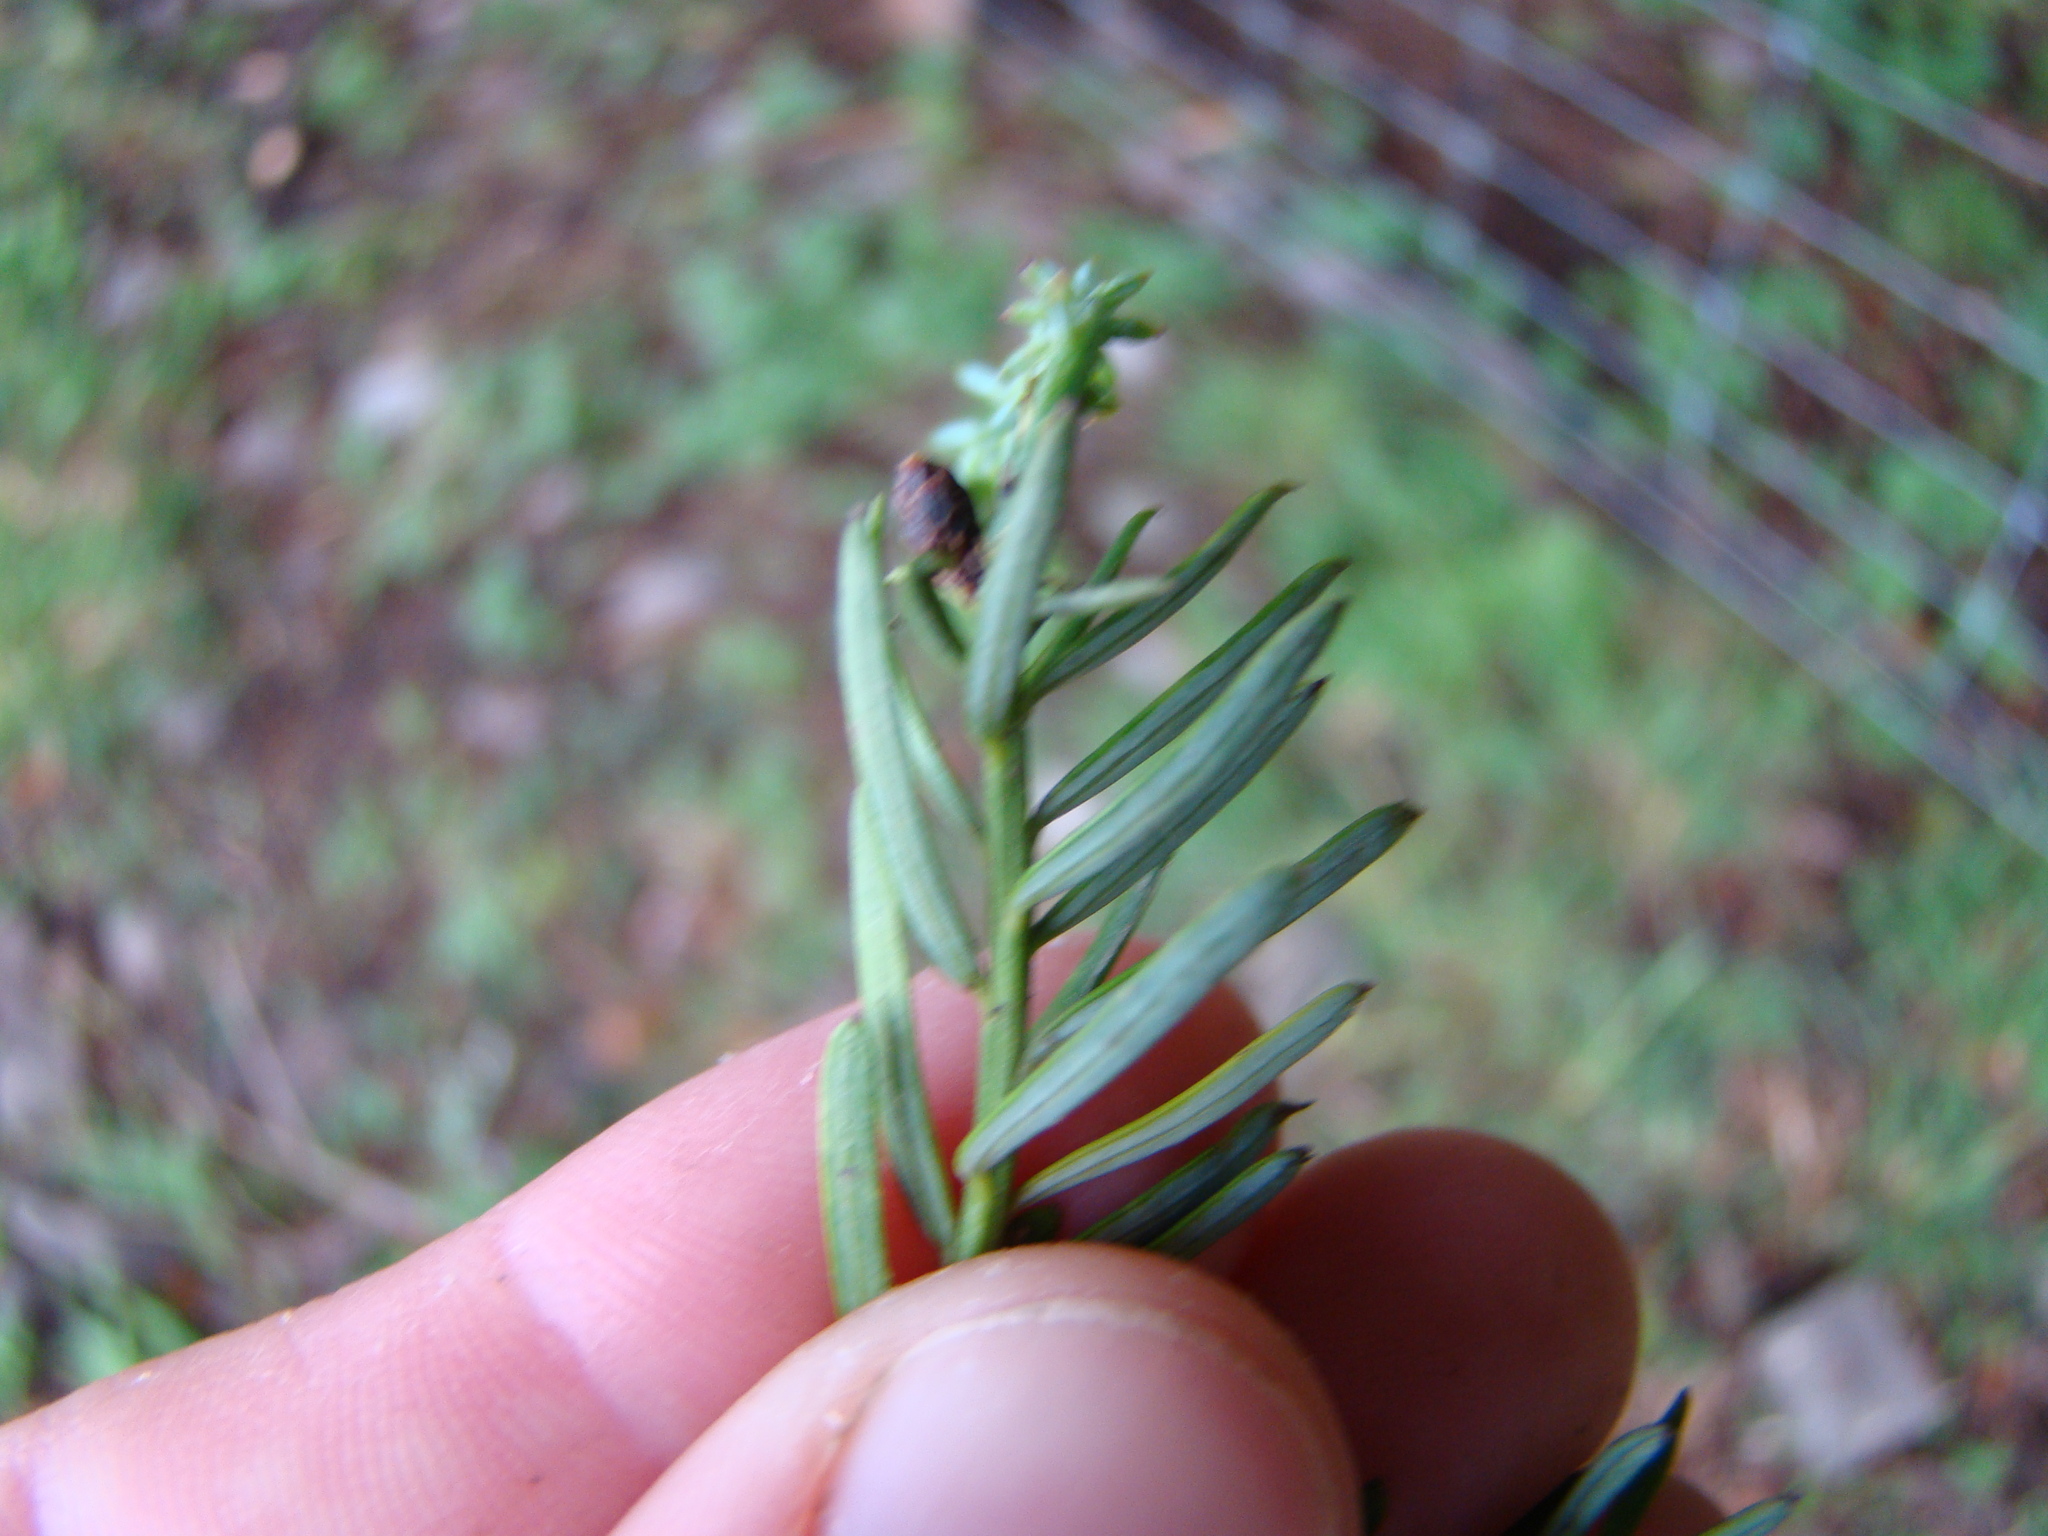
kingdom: Plantae
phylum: Tracheophyta
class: Pinopsida
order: Pinales
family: Podocarpaceae
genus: Prumnopitys
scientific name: Prumnopitys taxifolia
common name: Matai
